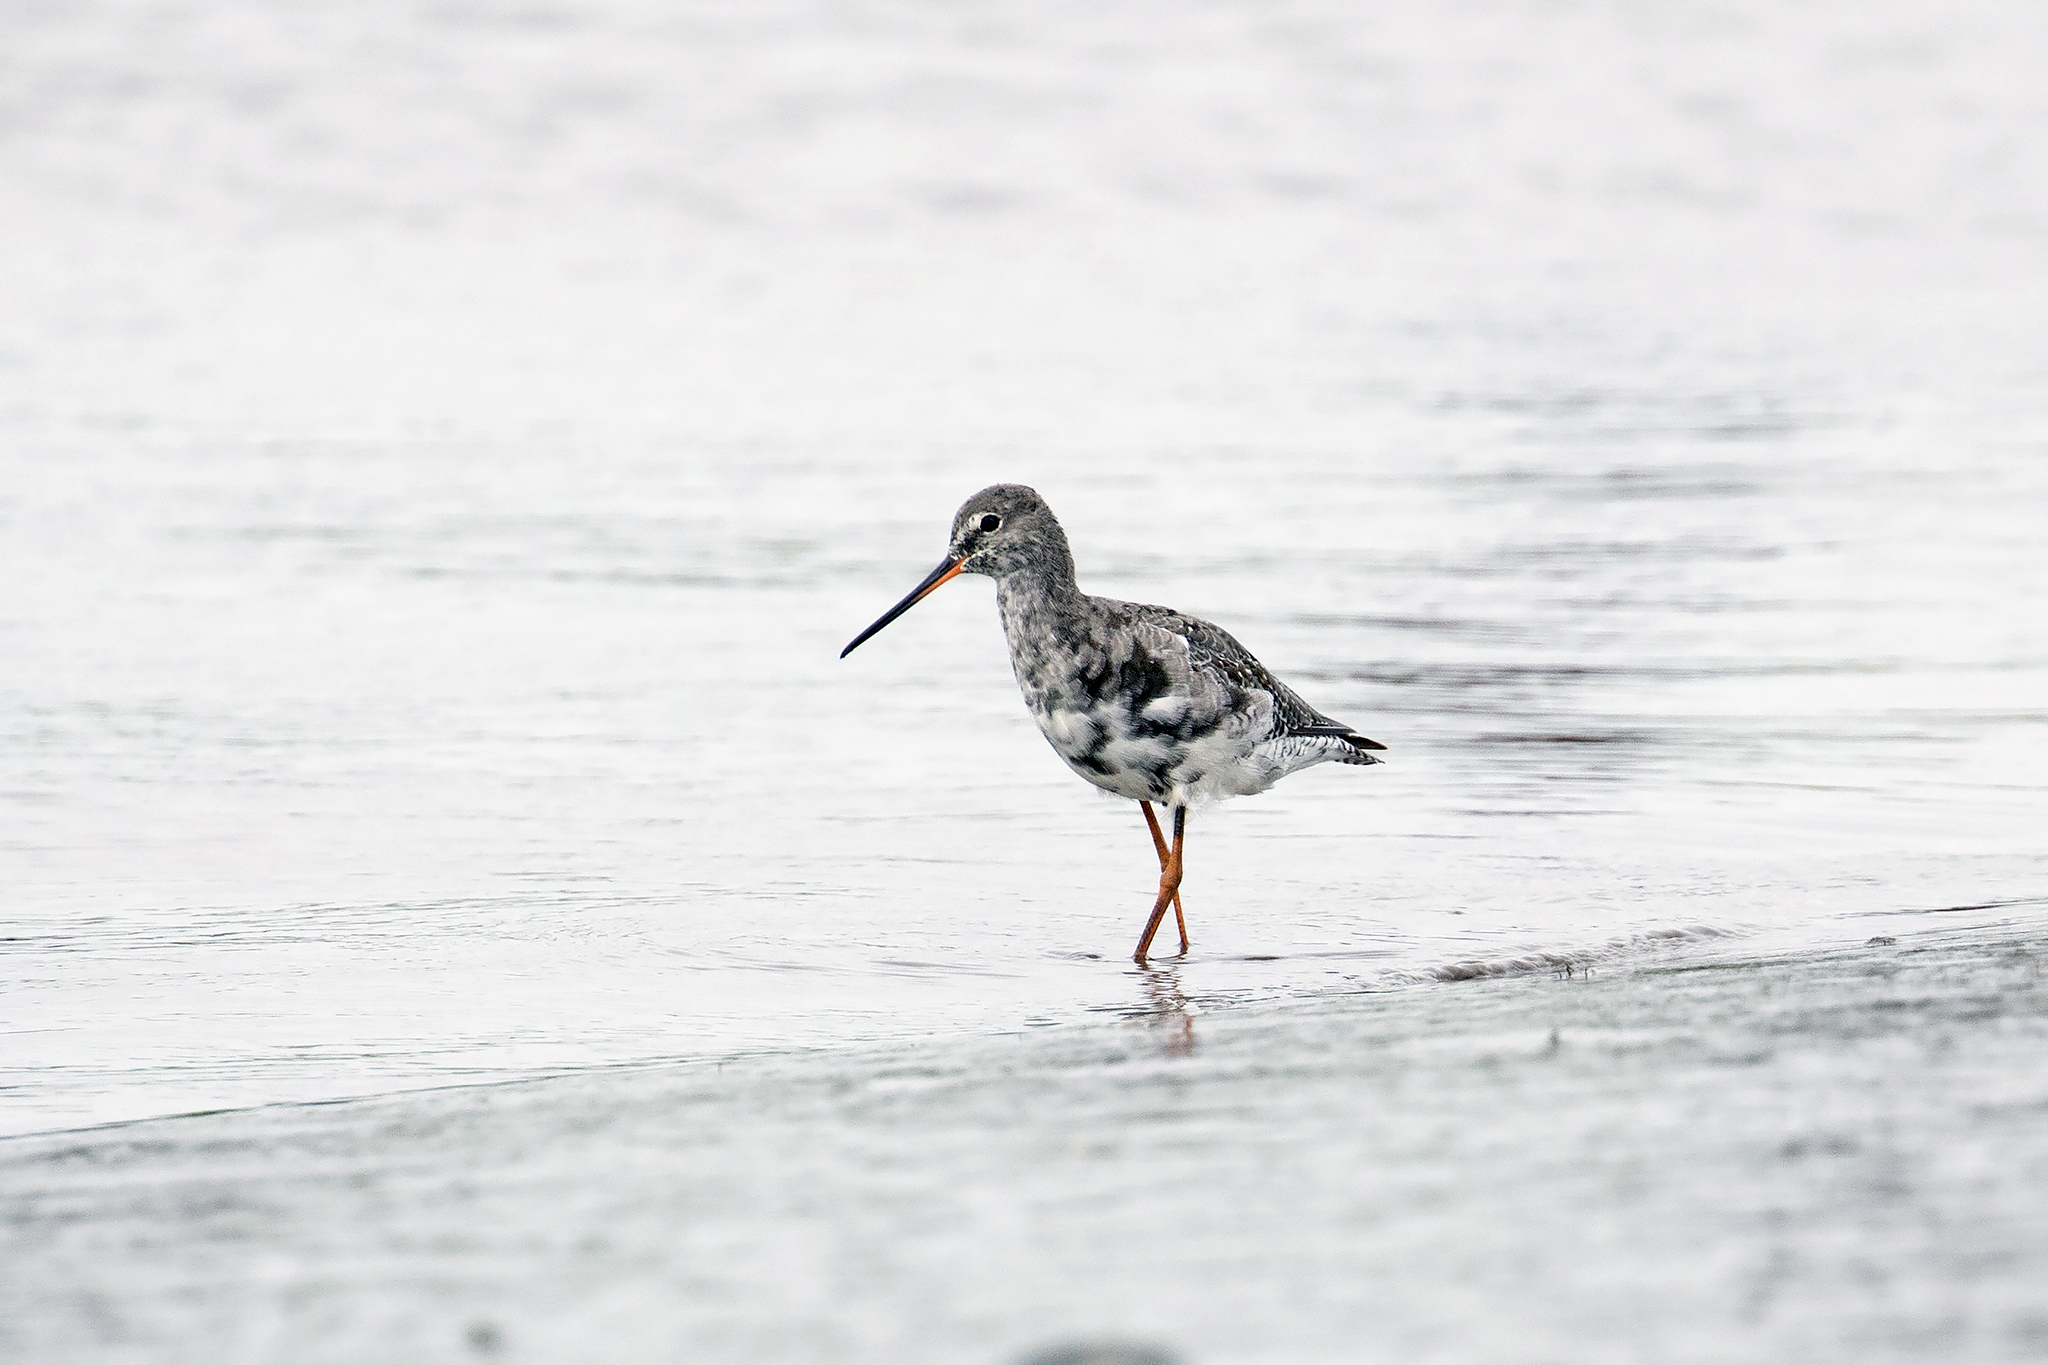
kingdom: Animalia
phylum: Chordata
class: Aves
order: Charadriiformes
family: Scolopacidae
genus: Tringa
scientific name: Tringa erythropus
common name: Spotted redshank
